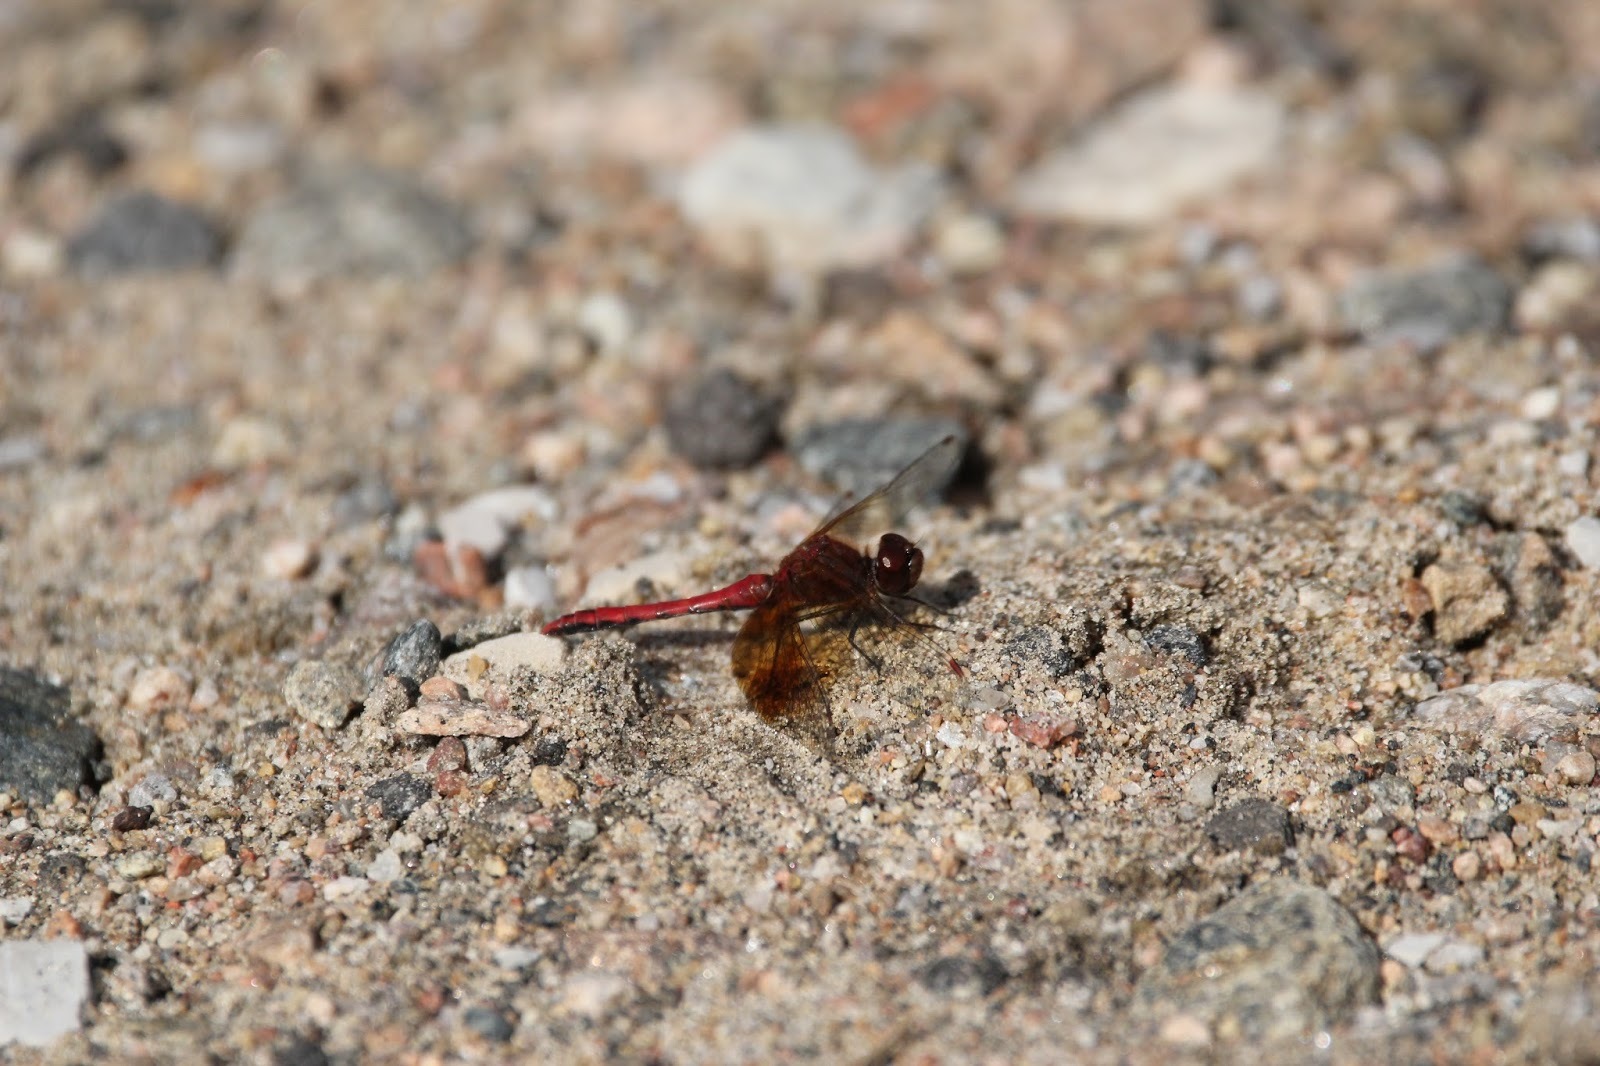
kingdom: Animalia
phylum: Arthropoda
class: Insecta
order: Odonata
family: Libellulidae
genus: Sympetrum
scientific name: Sympetrum semicinctum
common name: Band-winged meadowhawk
